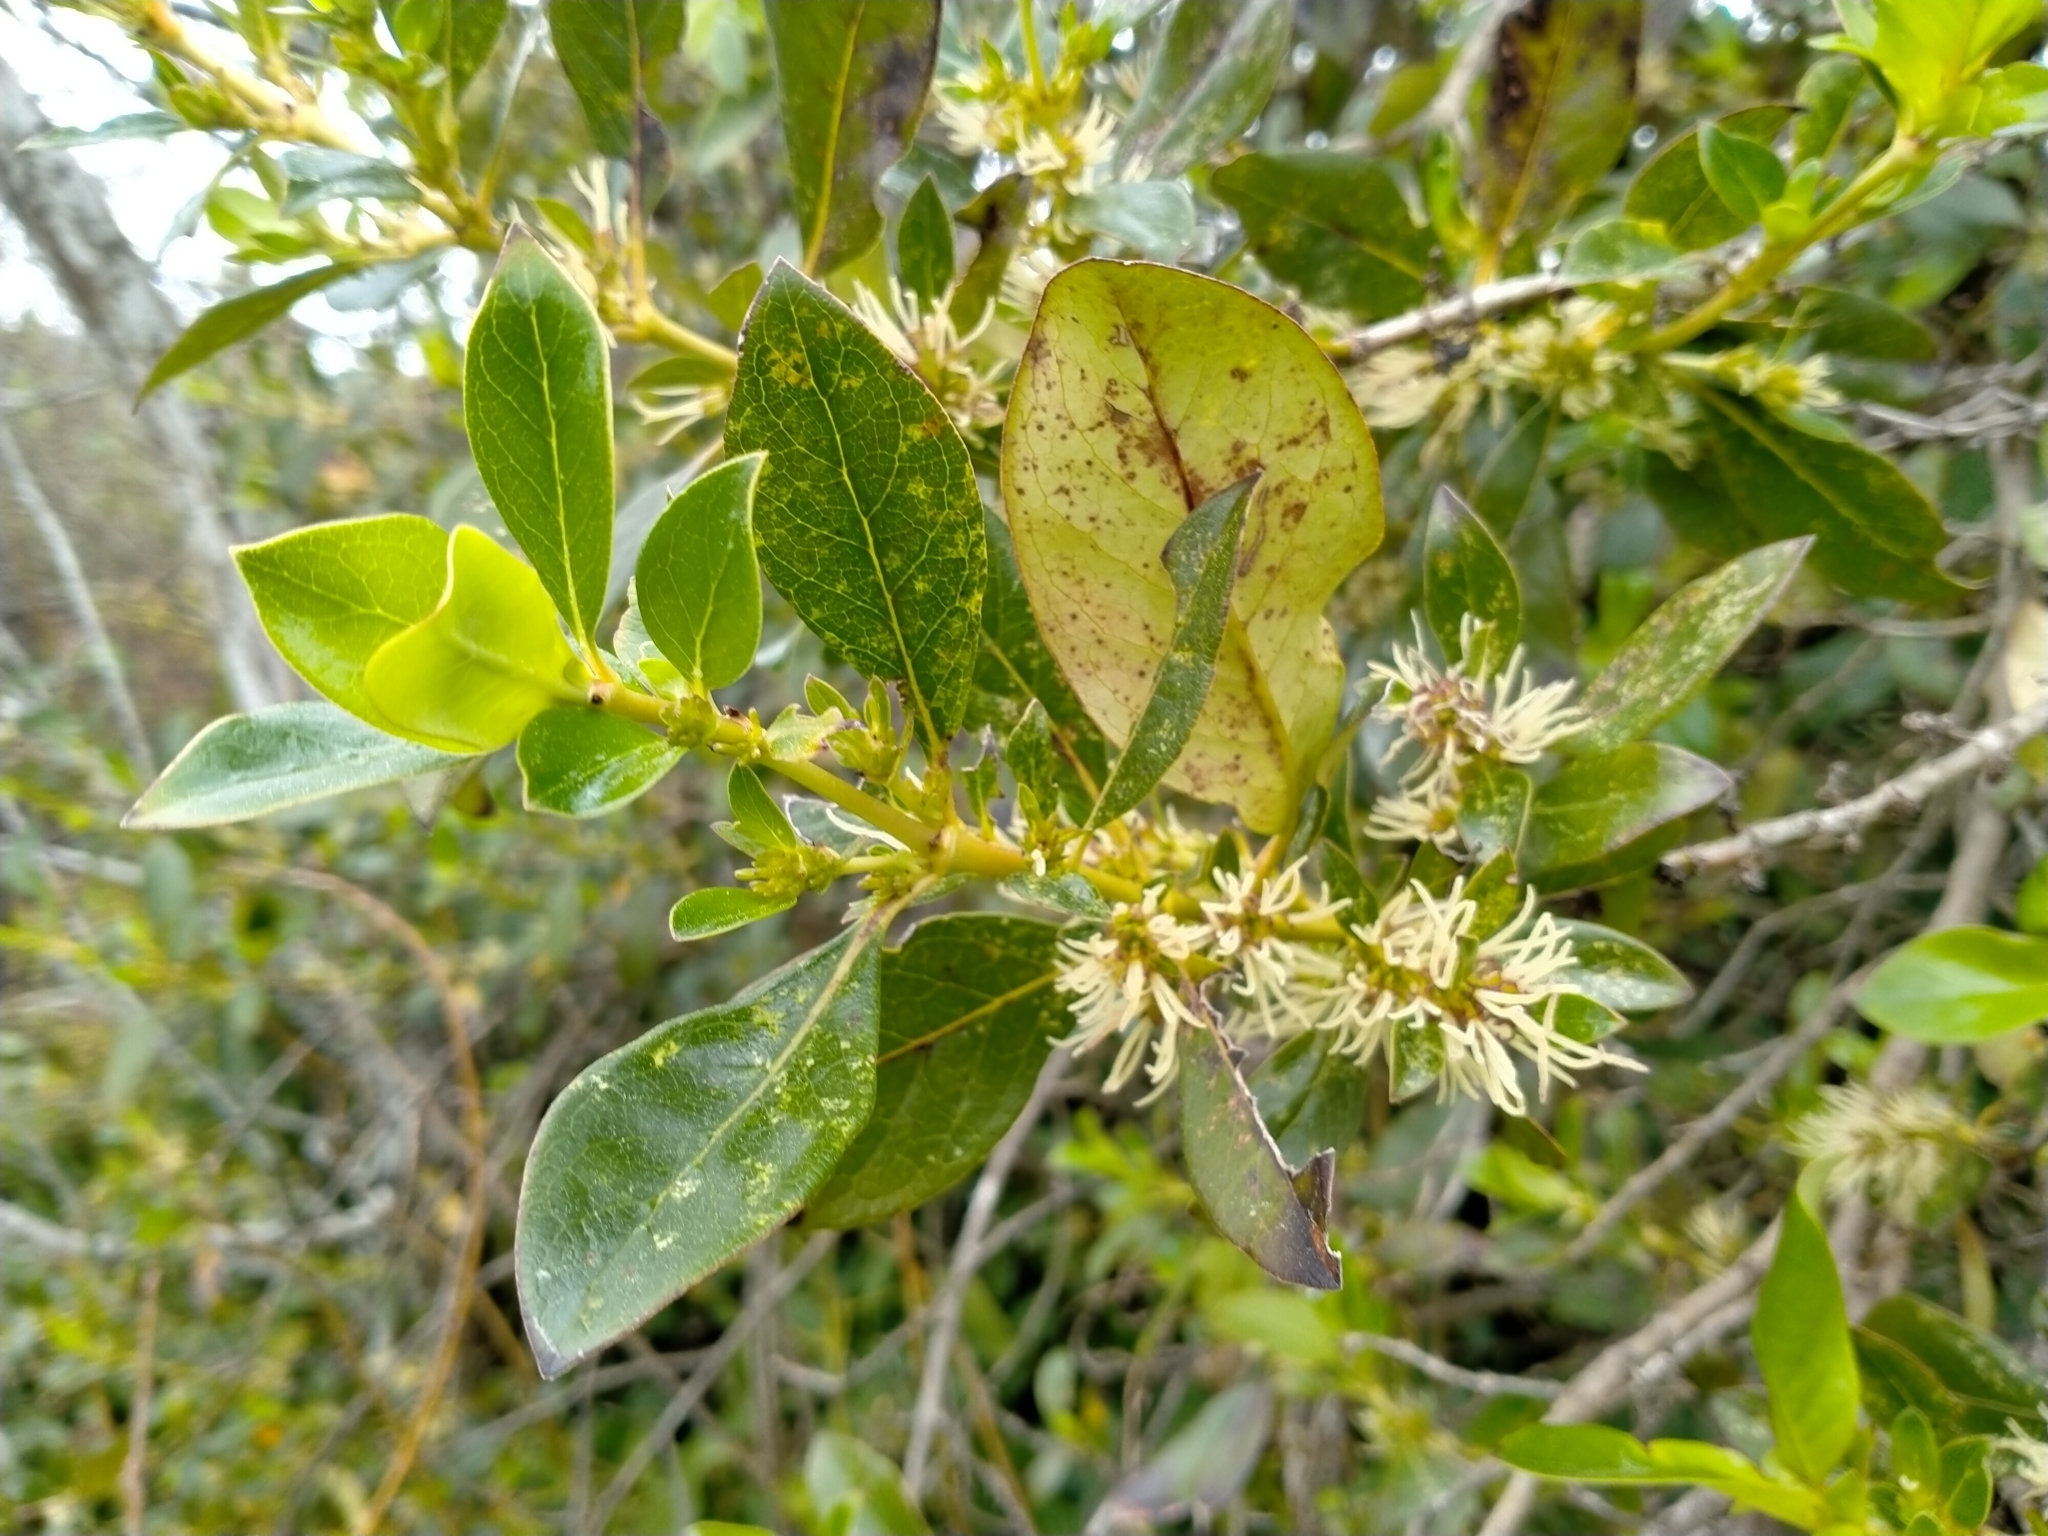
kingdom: Plantae
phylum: Tracheophyta
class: Magnoliopsida
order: Gentianales
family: Rubiaceae
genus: Coprosma
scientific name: Coprosma robusta
